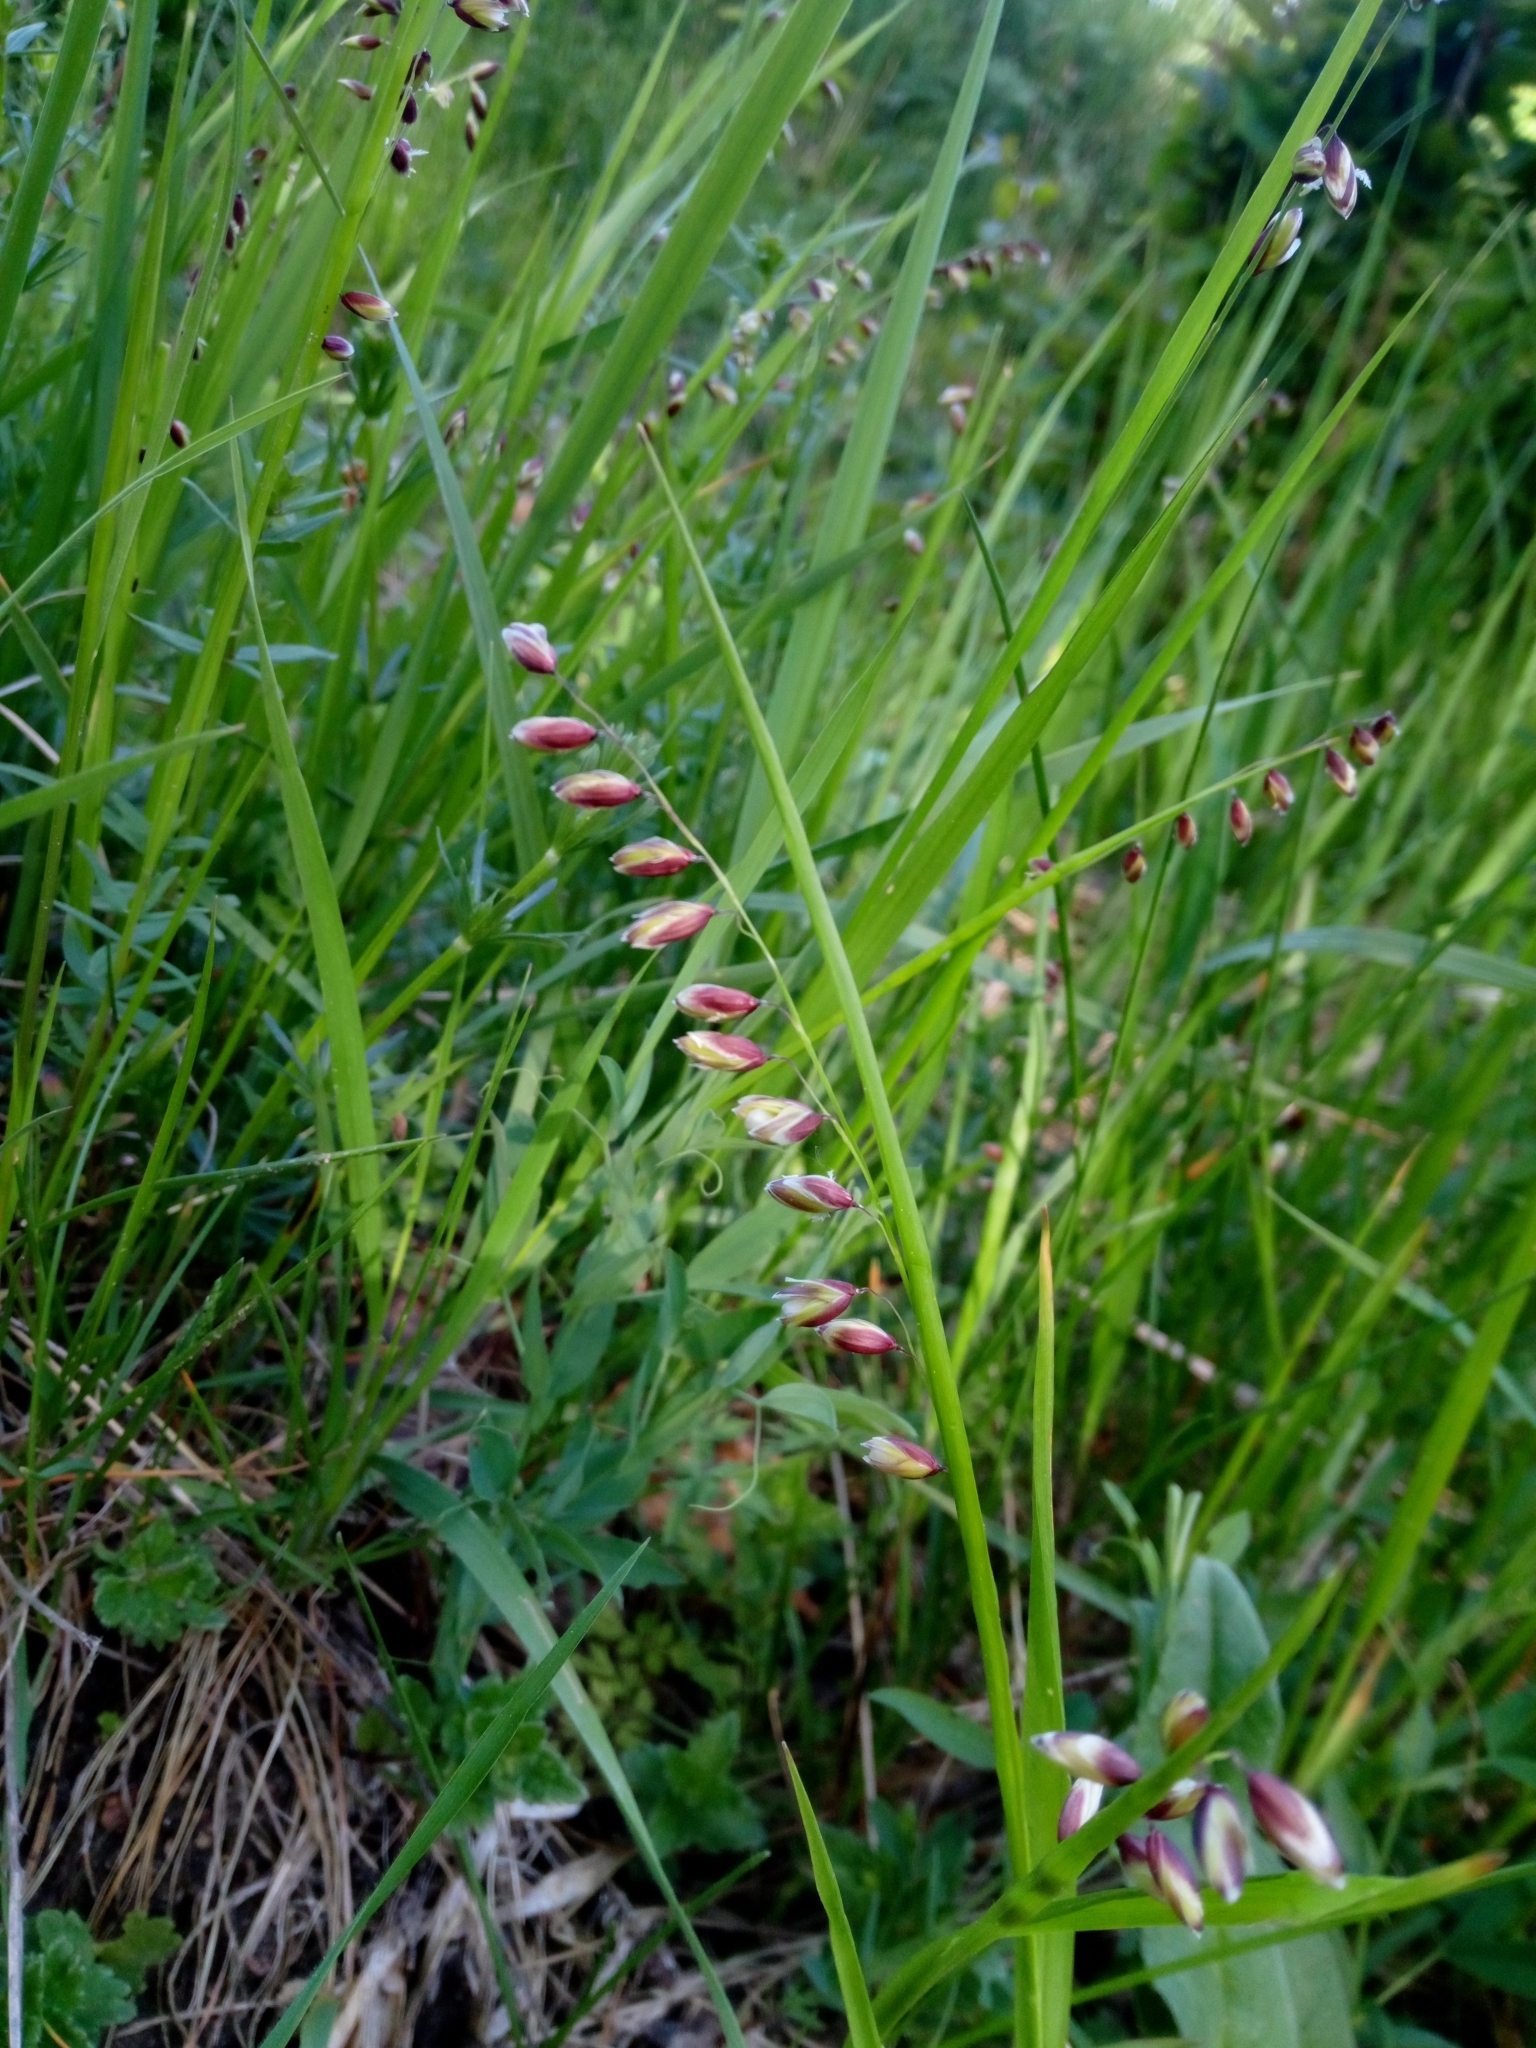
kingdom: Plantae
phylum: Tracheophyta
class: Liliopsida
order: Poales
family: Poaceae
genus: Melica
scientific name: Melica nutans
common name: Mountain melick
